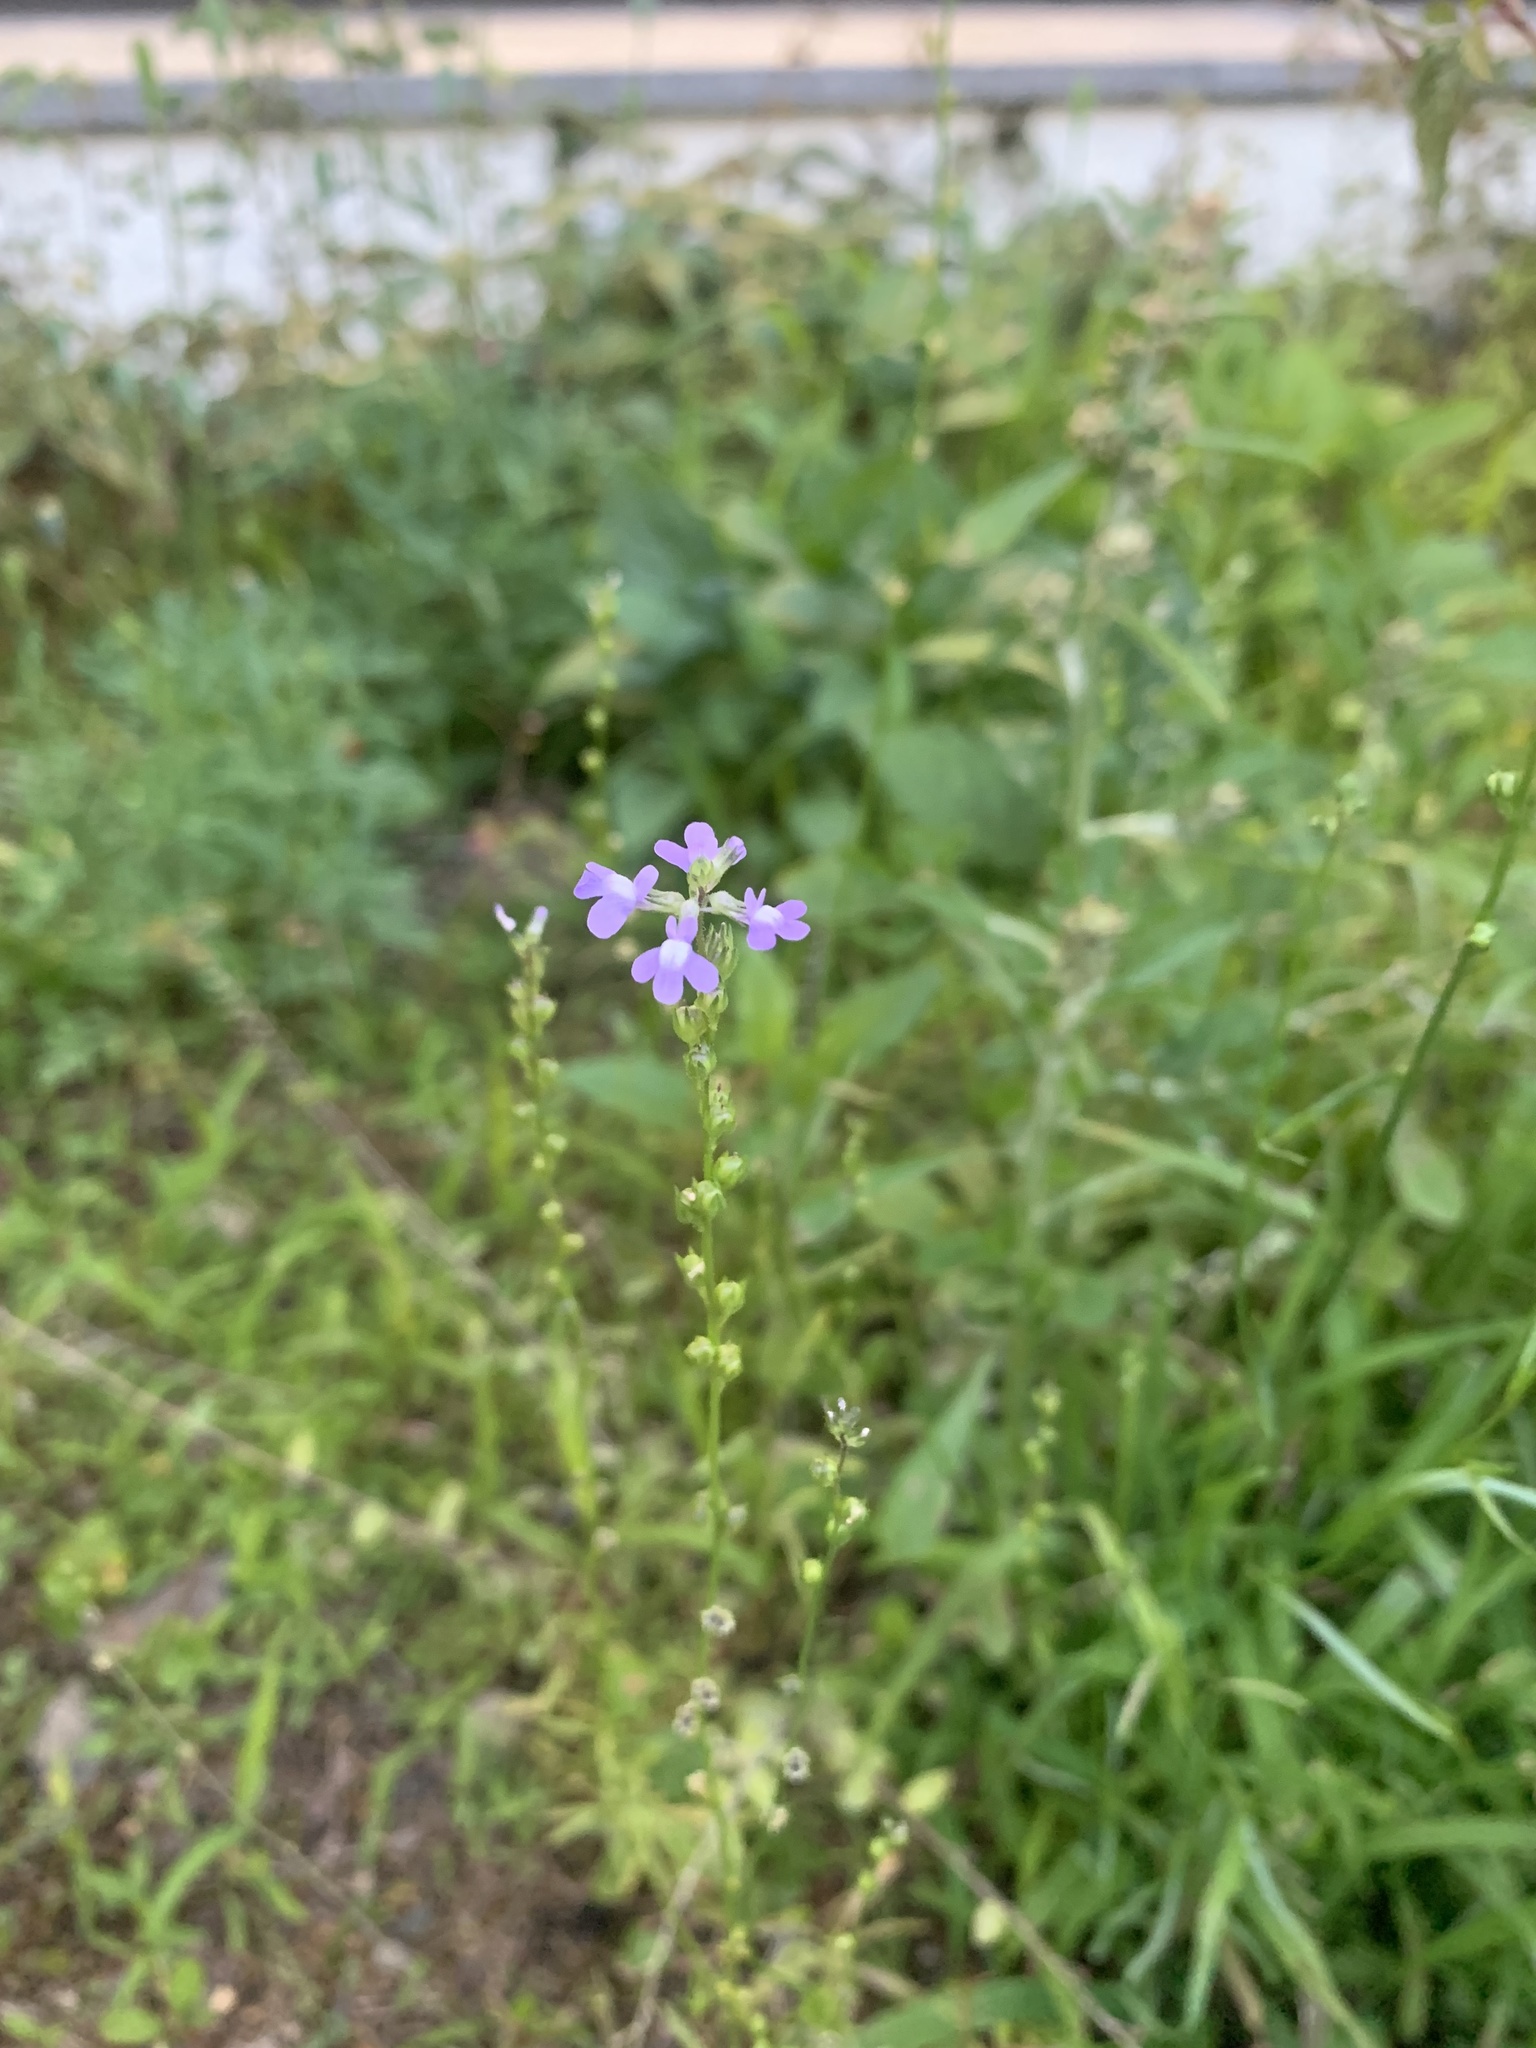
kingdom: Plantae
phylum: Tracheophyta
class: Magnoliopsida
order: Lamiales
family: Plantaginaceae
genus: Nuttallanthus
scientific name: Nuttallanthus canadensis
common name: Blue toadflax
